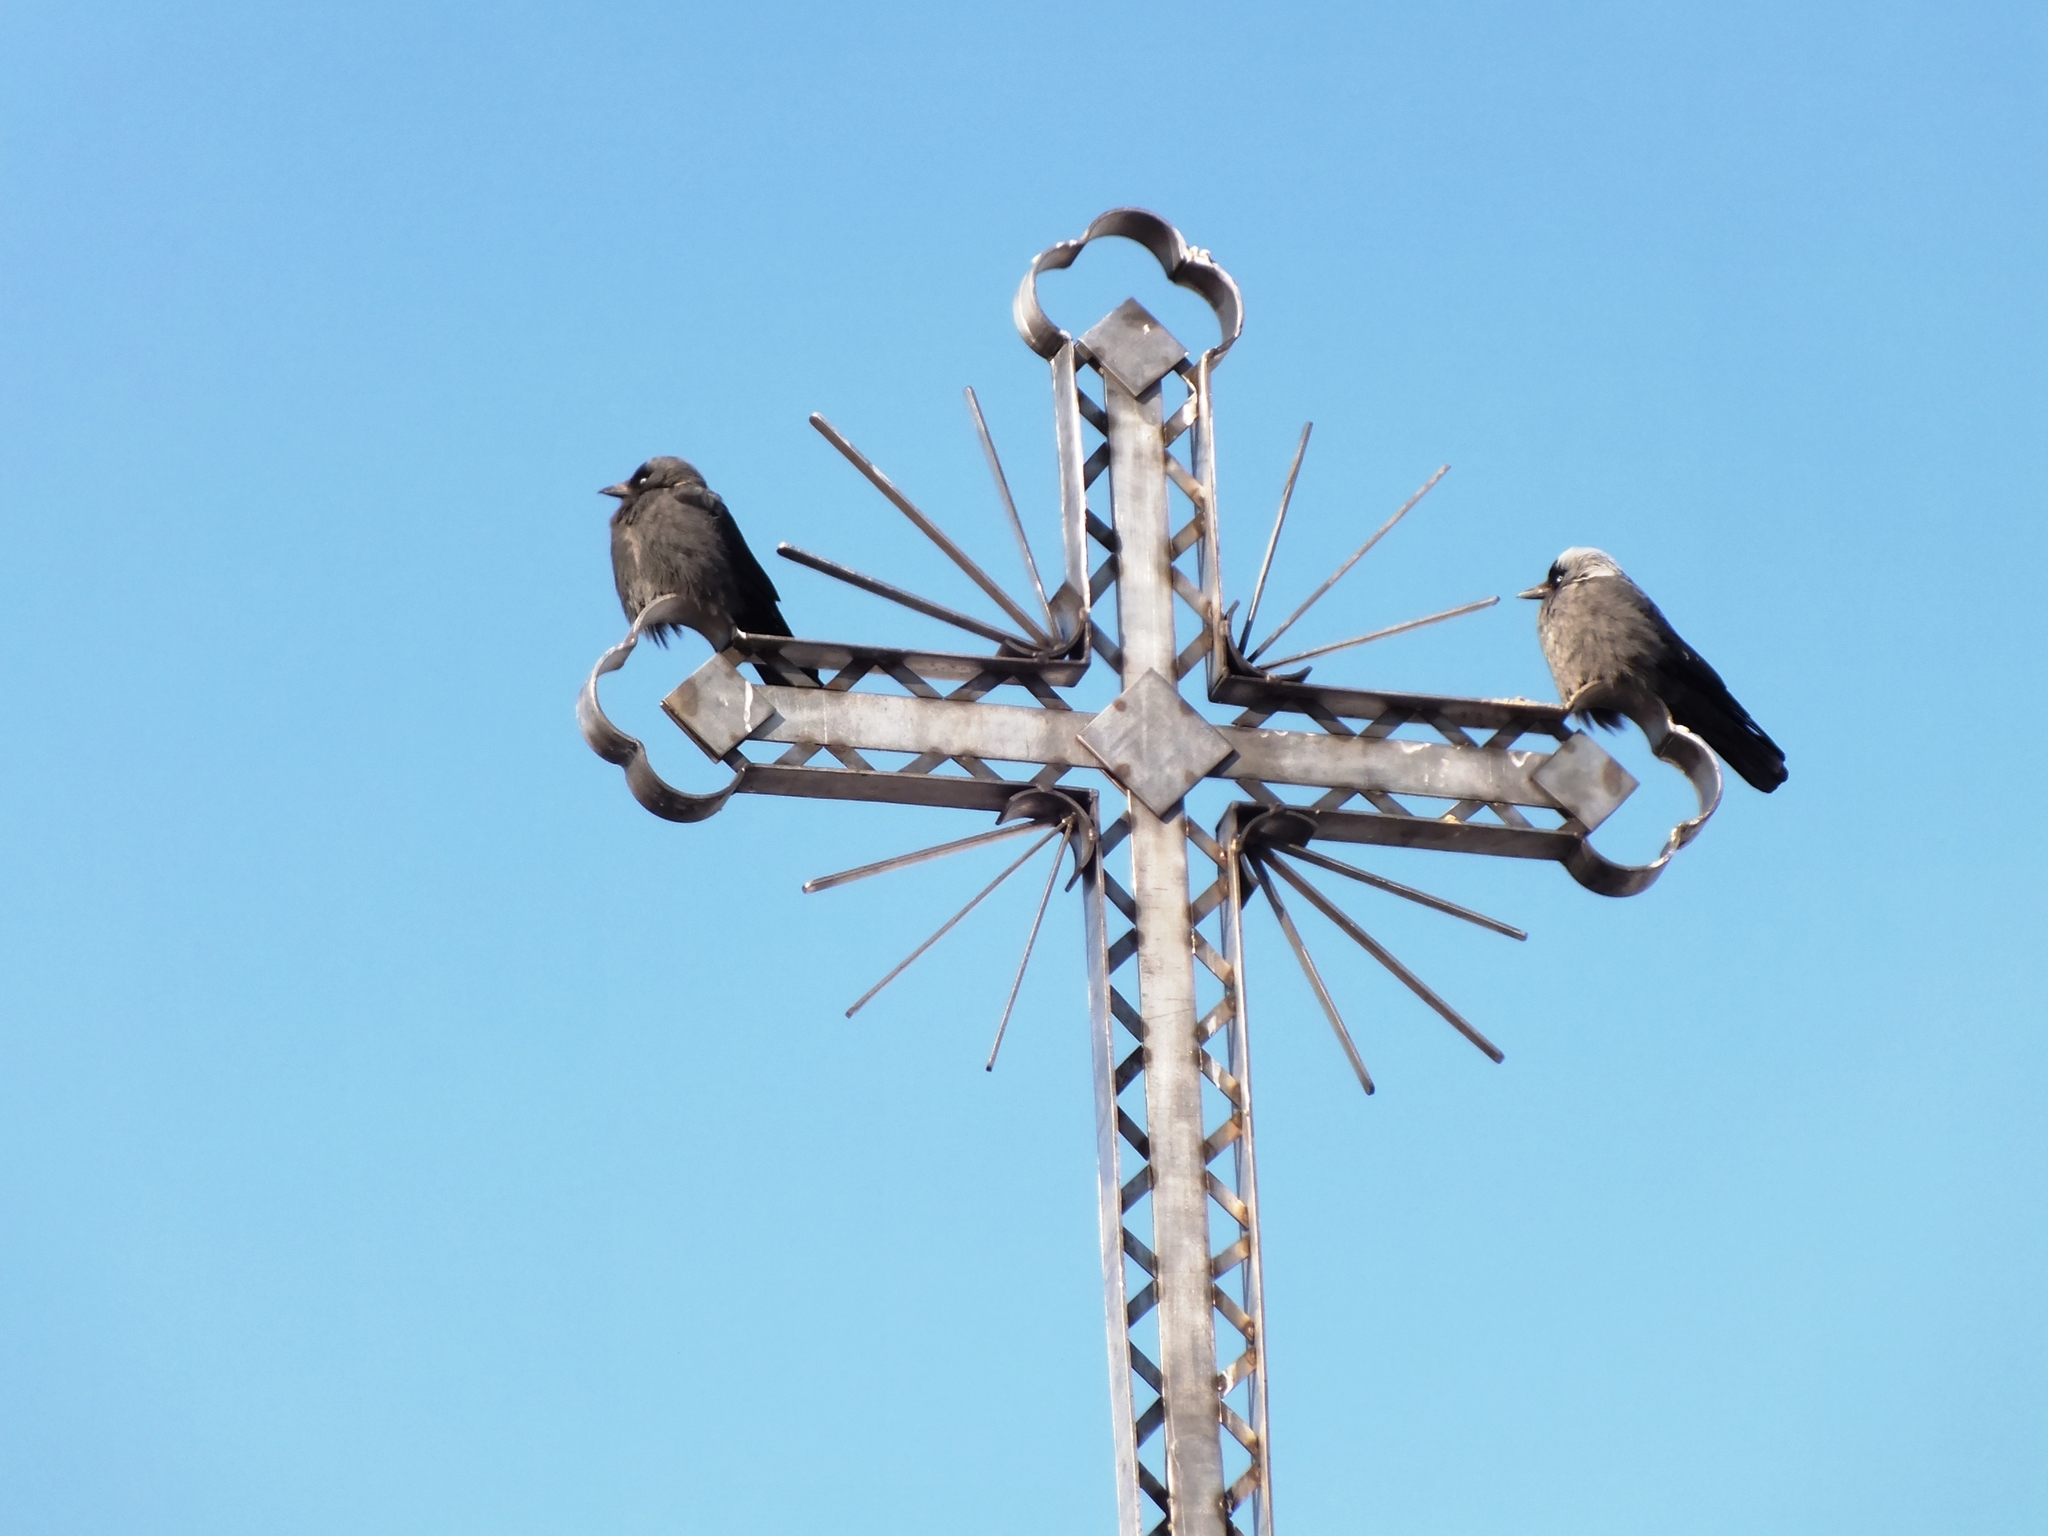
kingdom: Animalia
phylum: Chordata
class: Aves
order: Passeriformes
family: Corvidae
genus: Coloeus
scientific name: Coloeus monedula
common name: Western jackdaw
